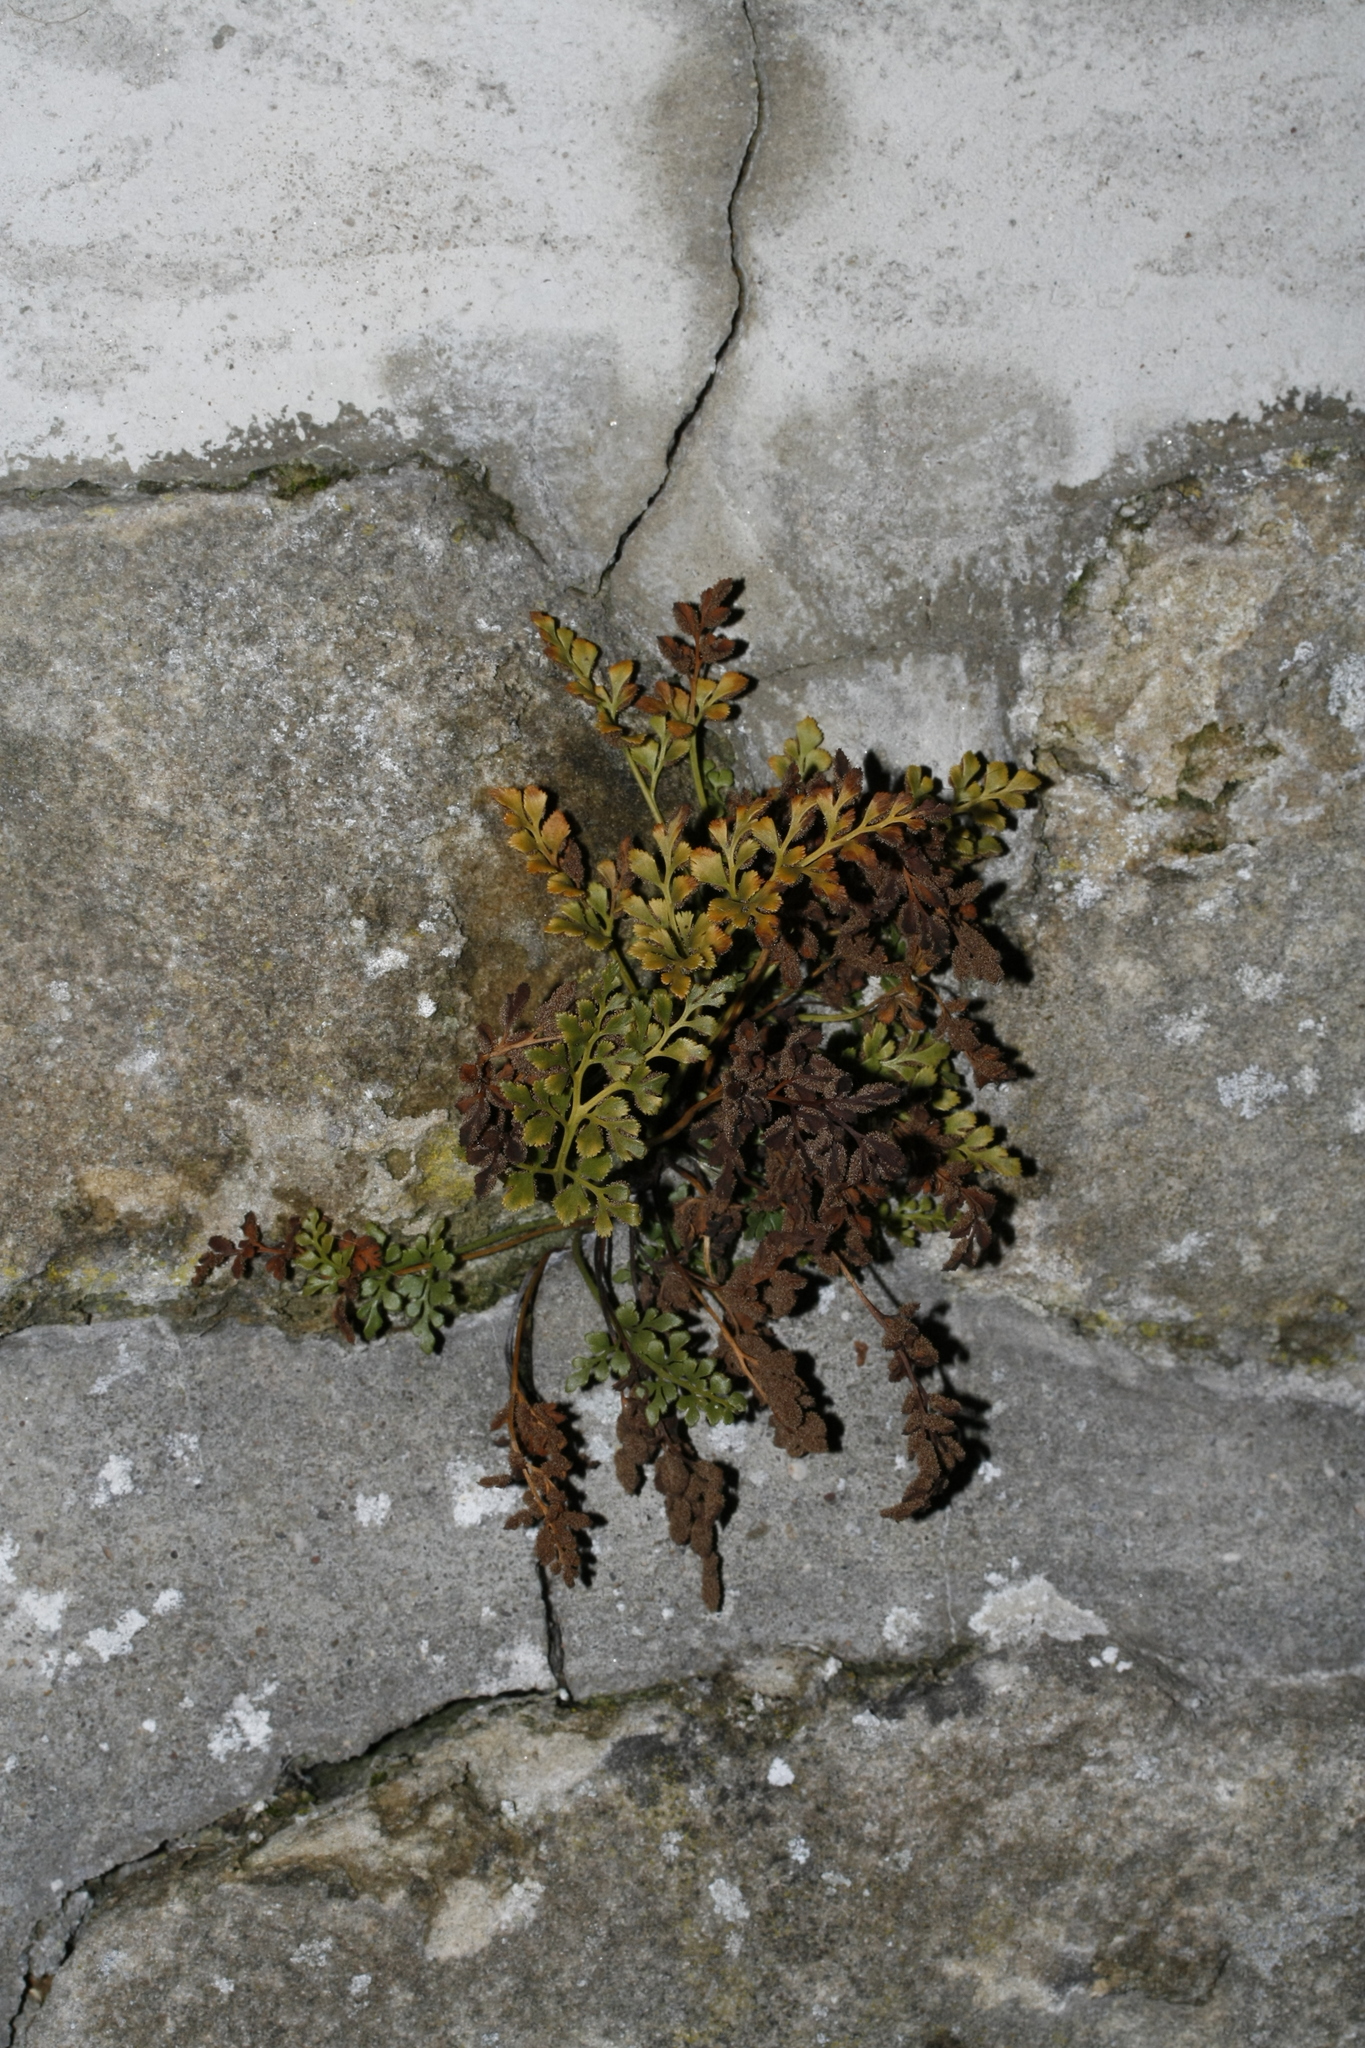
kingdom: Plantae
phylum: Tracheophyta
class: Polypodiopsida
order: Polypodiales
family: Aspleniaceae
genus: Asplenium
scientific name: Asplenium ruta-muraria
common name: Wall-rue
